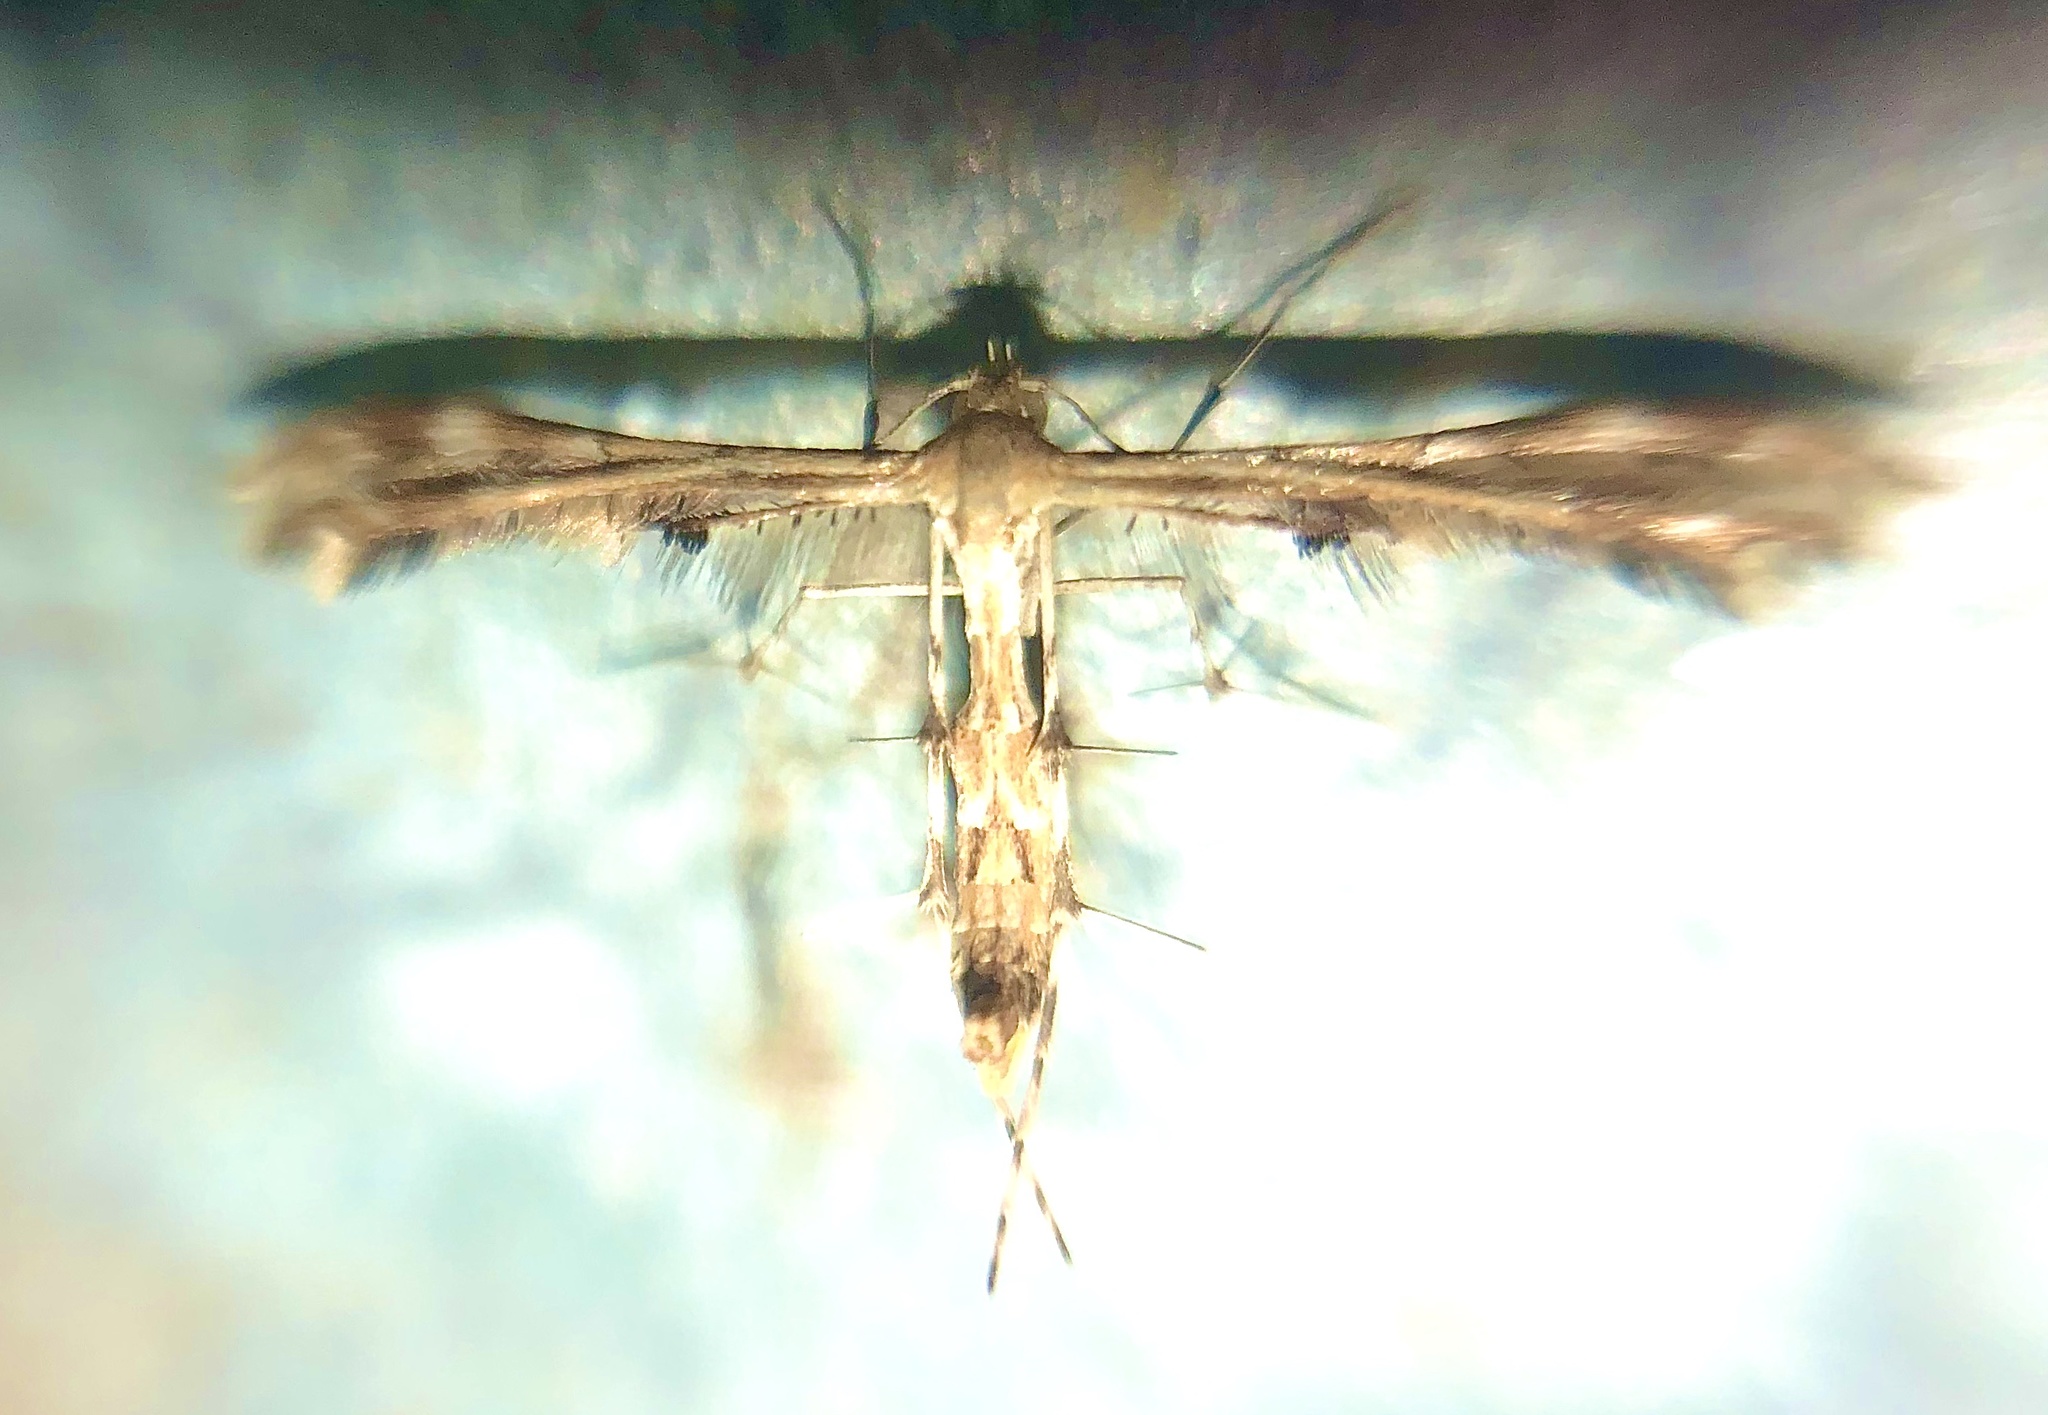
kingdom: Animalia
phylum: Arthropoda
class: Insecta
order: Lepidoptera
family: Pterophoridae
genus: Sphenarches
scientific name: Sphenarches anisodactylus
